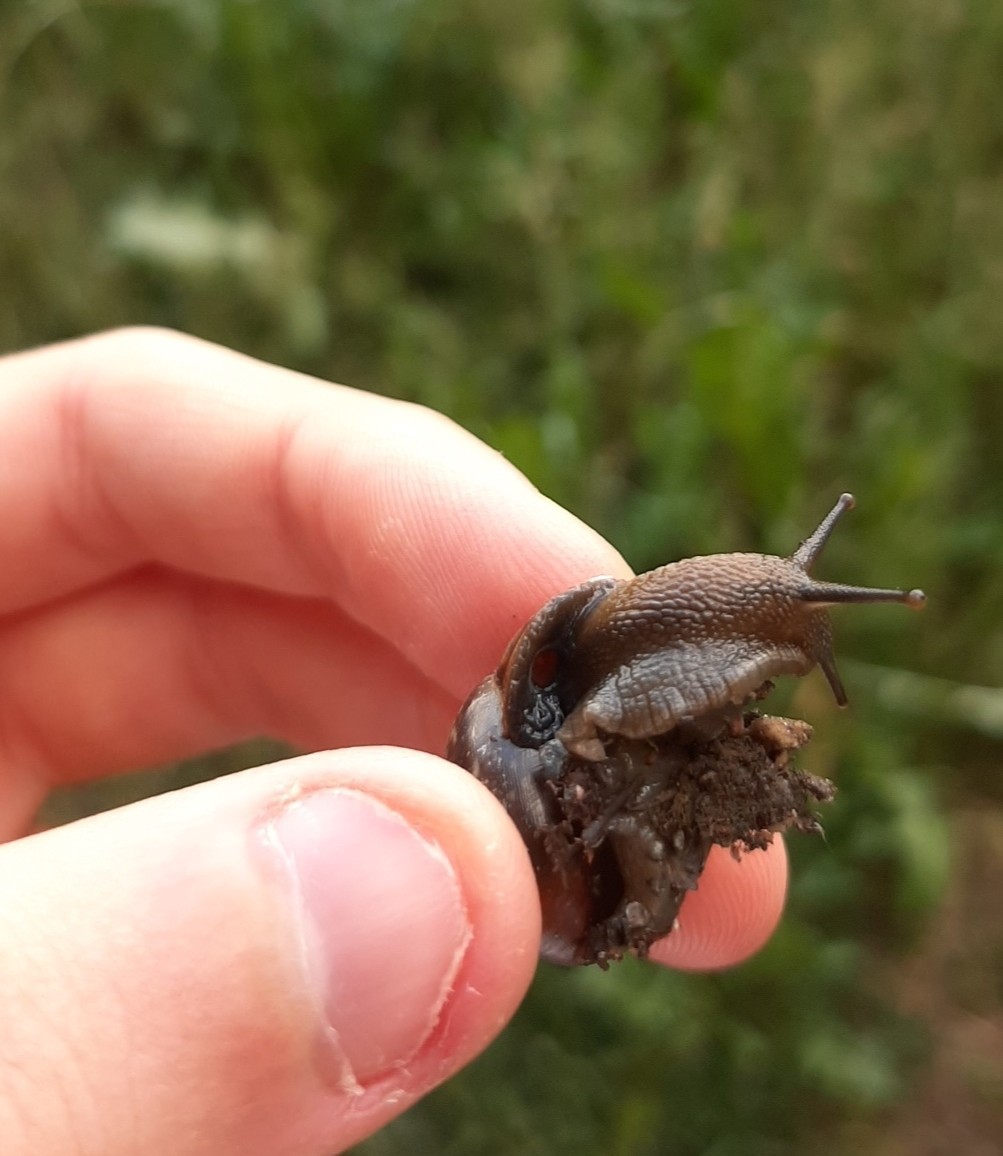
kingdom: Animalia
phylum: Mollusca
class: Gastropoda
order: Stylommatophora
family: Helicidae
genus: Arianta
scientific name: Arianta arbustorum
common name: Copse snail
